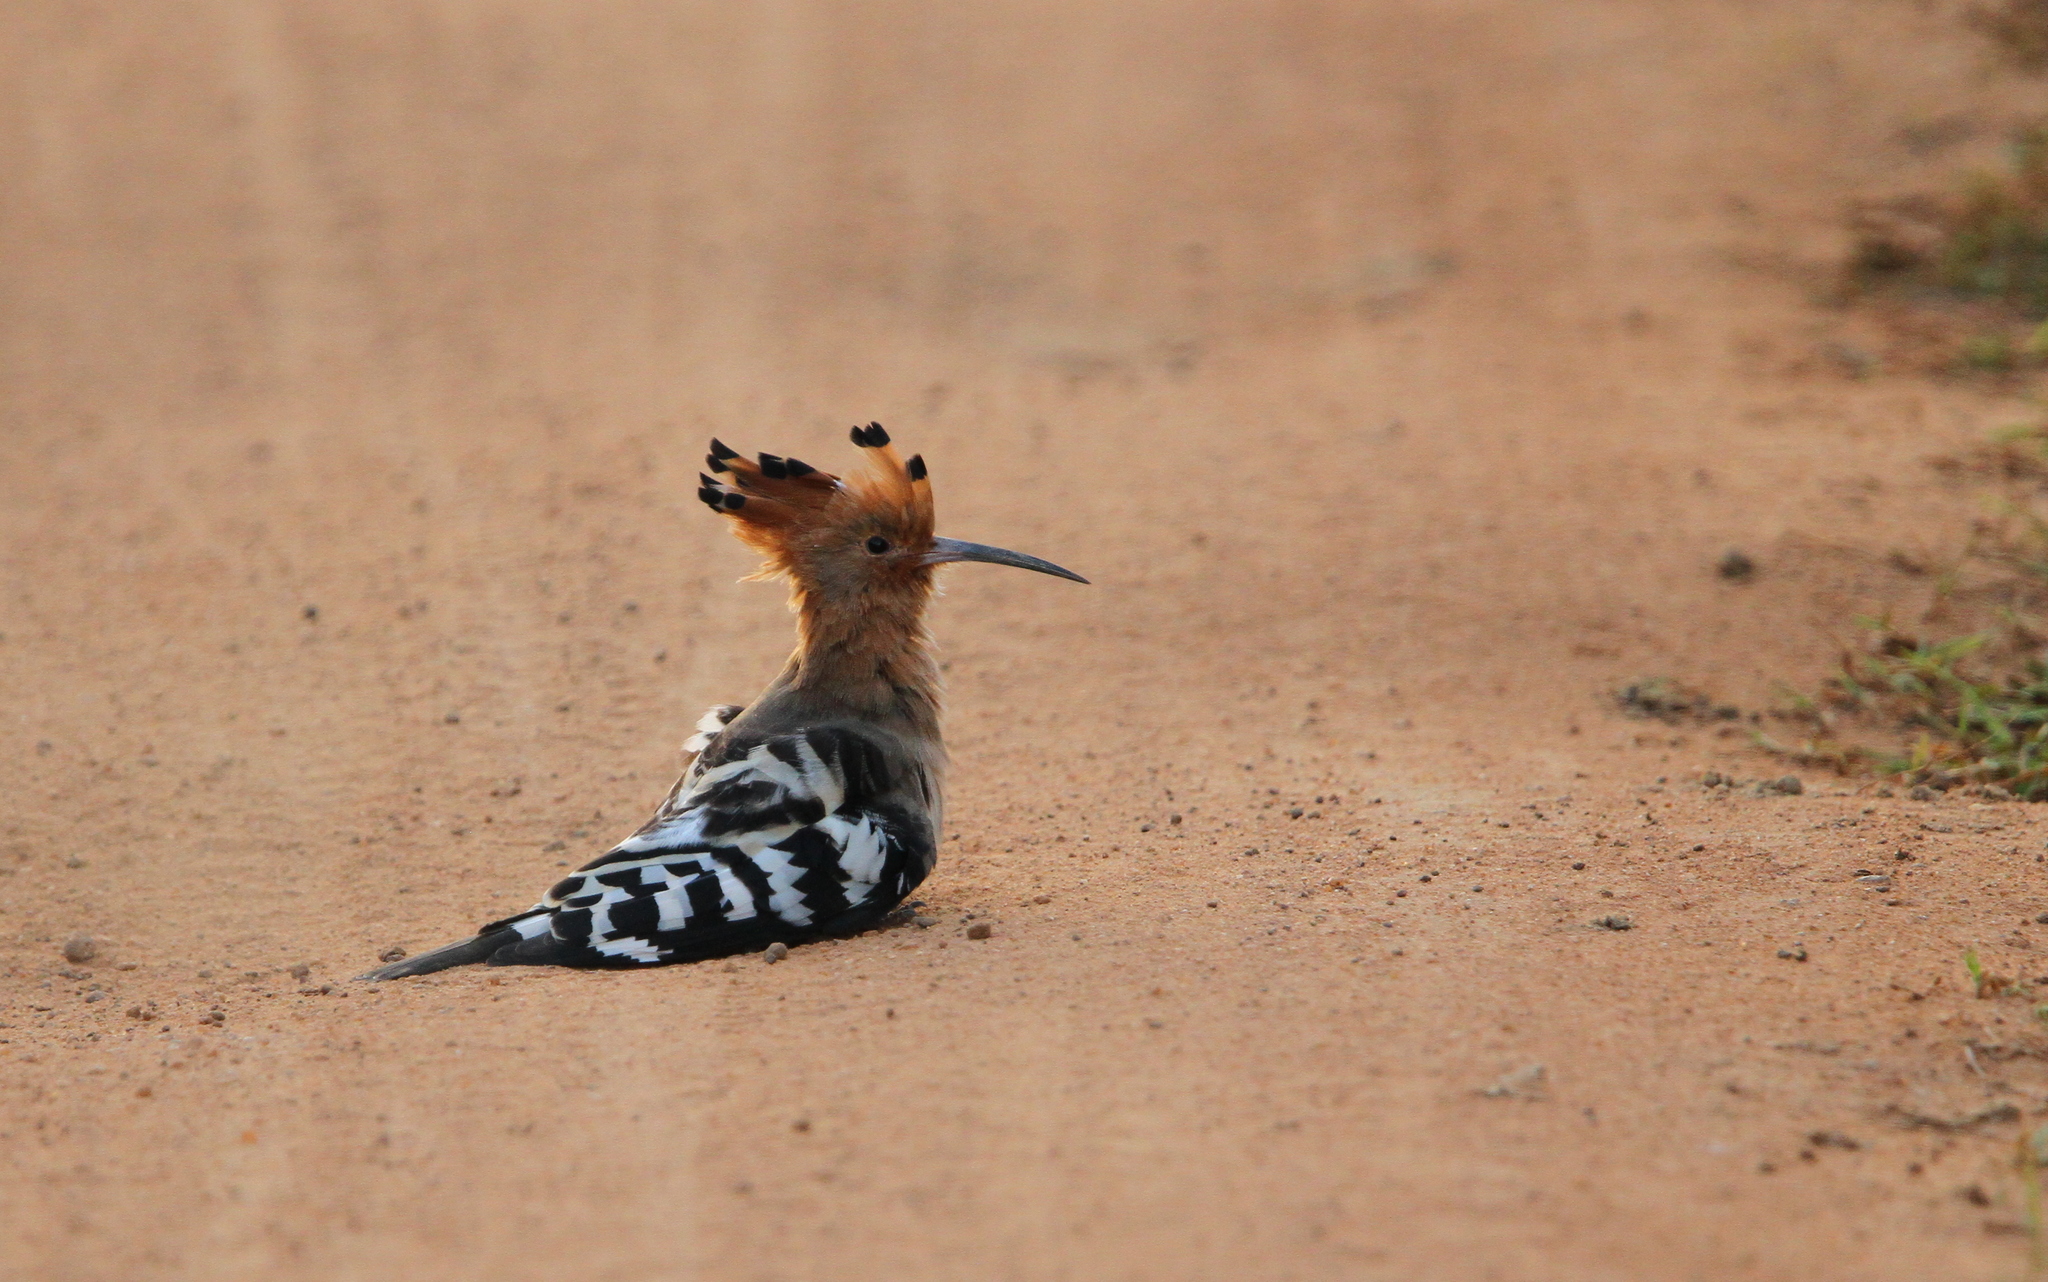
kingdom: Animalia
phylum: Chordata
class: Aves
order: Bucerotiformes
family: Upupidae
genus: Upupa
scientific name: Upupa epops
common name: Eurasian hoopoe
